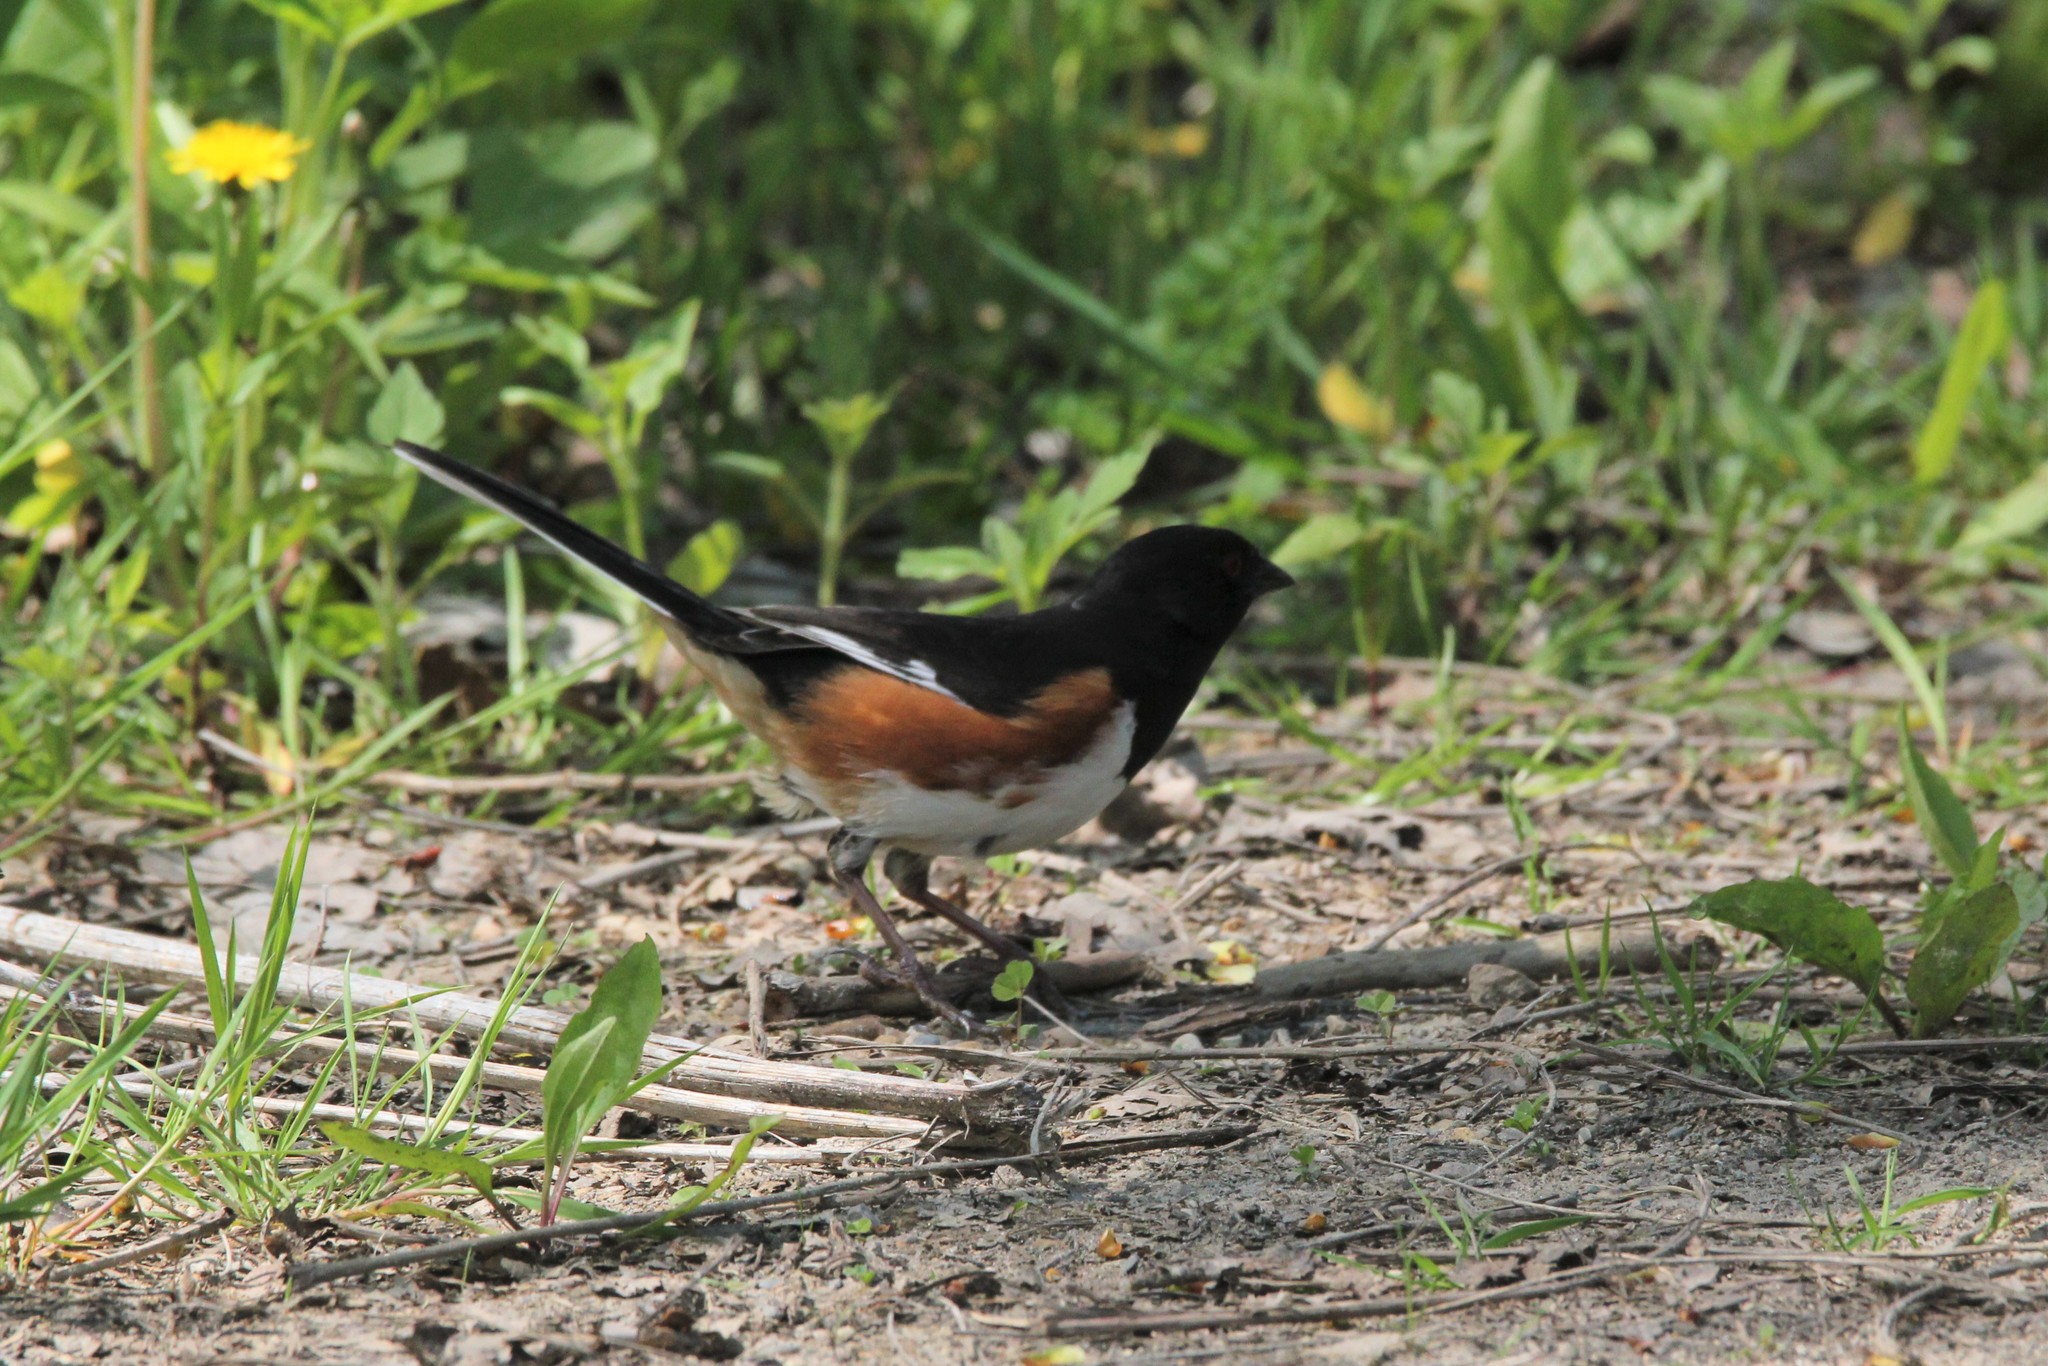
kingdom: Animalia
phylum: Chordata
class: Aves
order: Passeriformes
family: Passerellidae
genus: Pipilo
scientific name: Pipilo erythrophthalmus
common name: Eastern towhee
